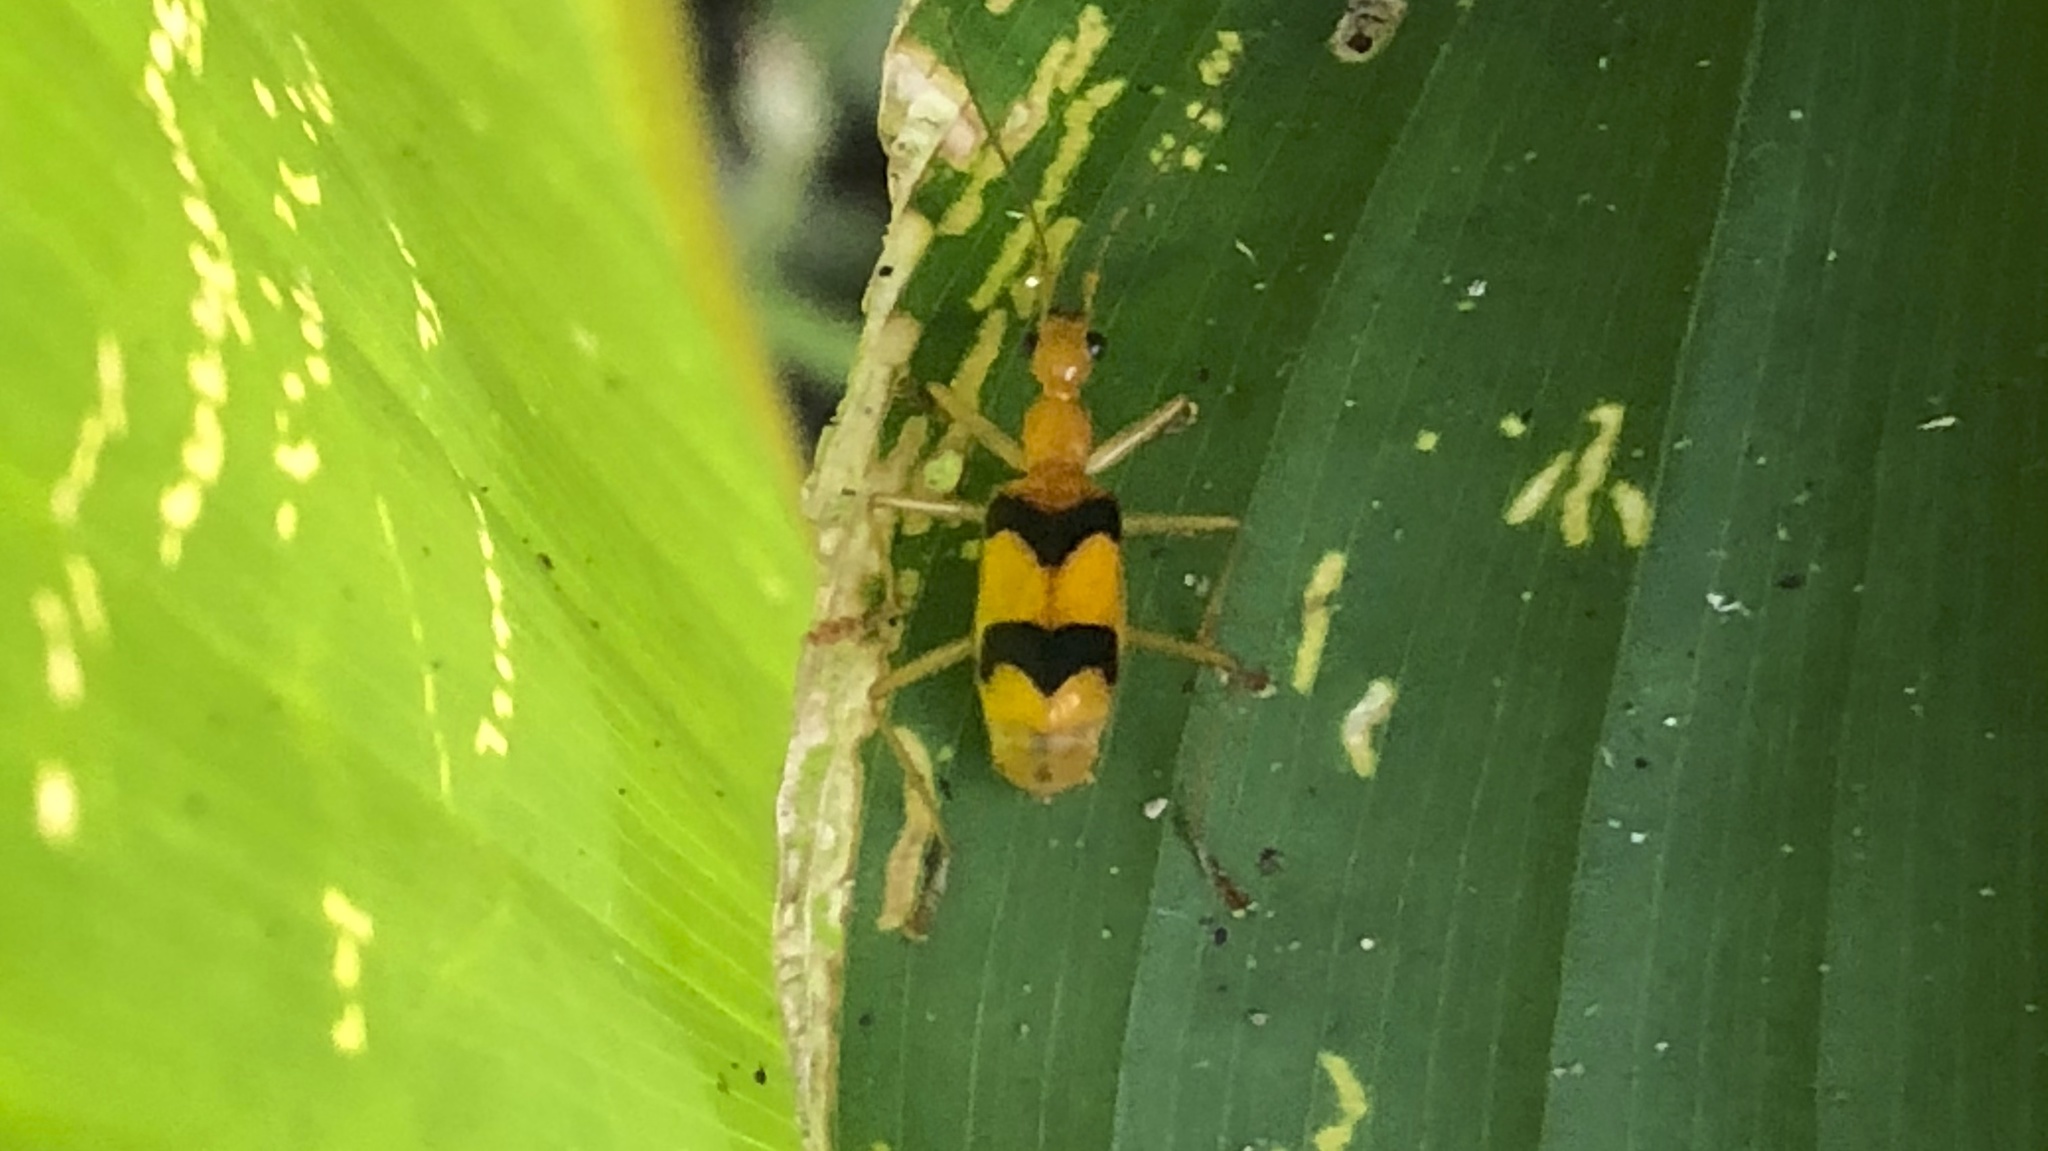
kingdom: Animalia
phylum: Arthropoda
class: Insecta
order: Coleoptera
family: Carabidae
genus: Calophaena
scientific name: Calophaena ligata
